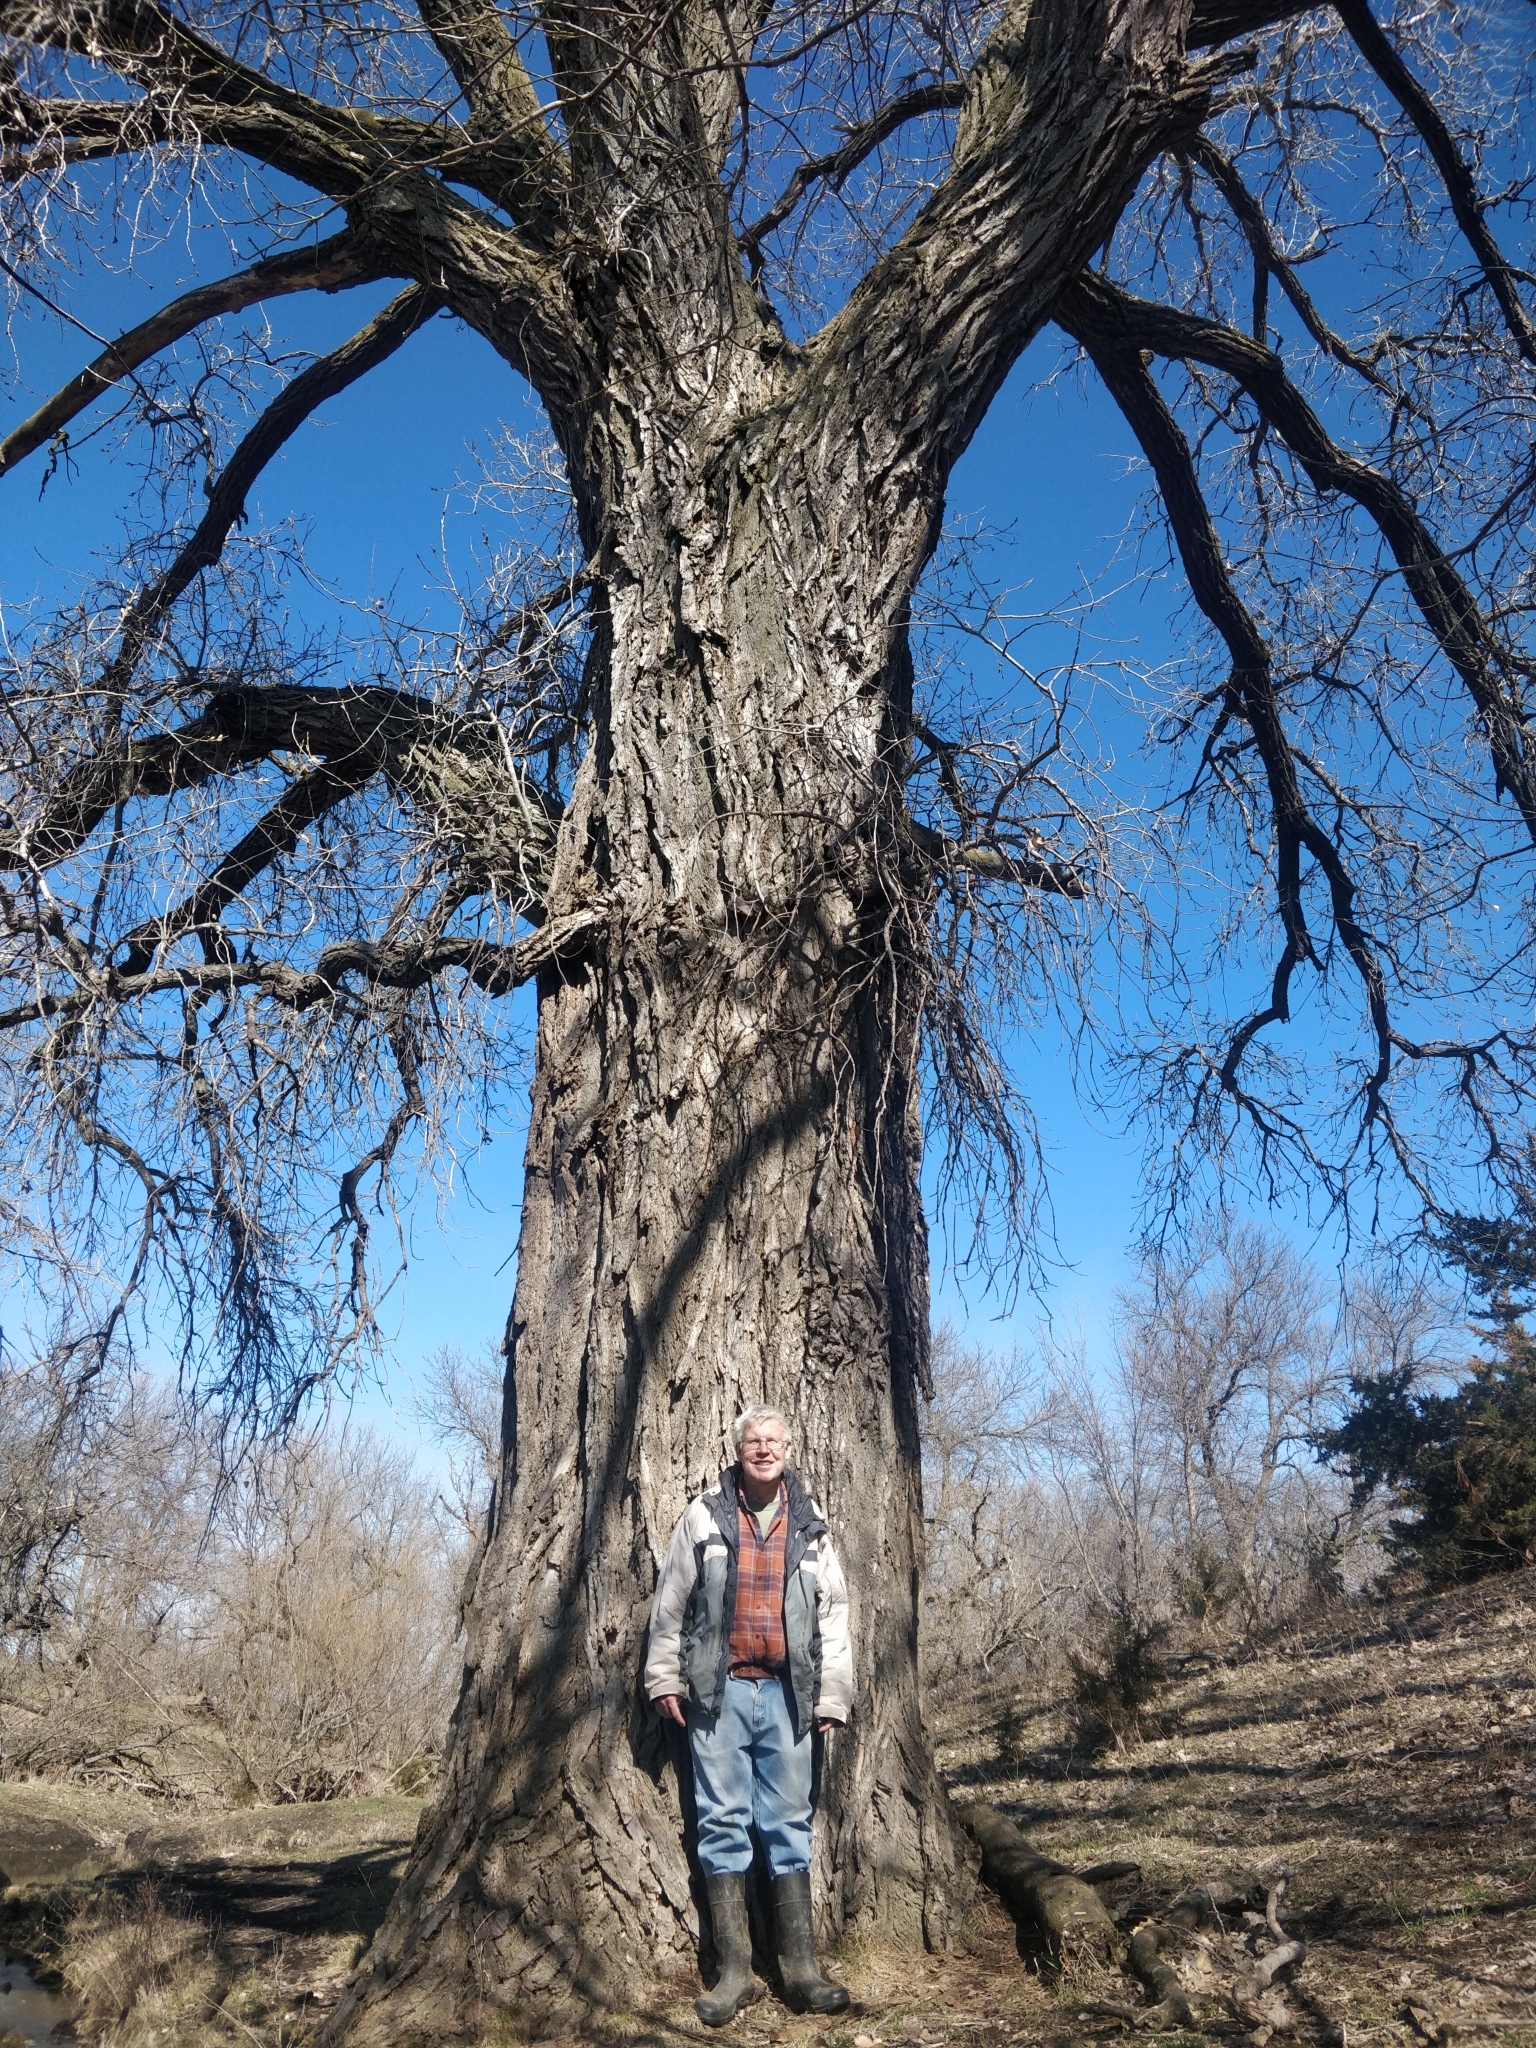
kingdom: Plantae
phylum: Tracheophyta
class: Magnoliopsida
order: Malpighiales
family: Salicaceae
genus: Populus
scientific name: Populus deltoides
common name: Eastern cottonwood
